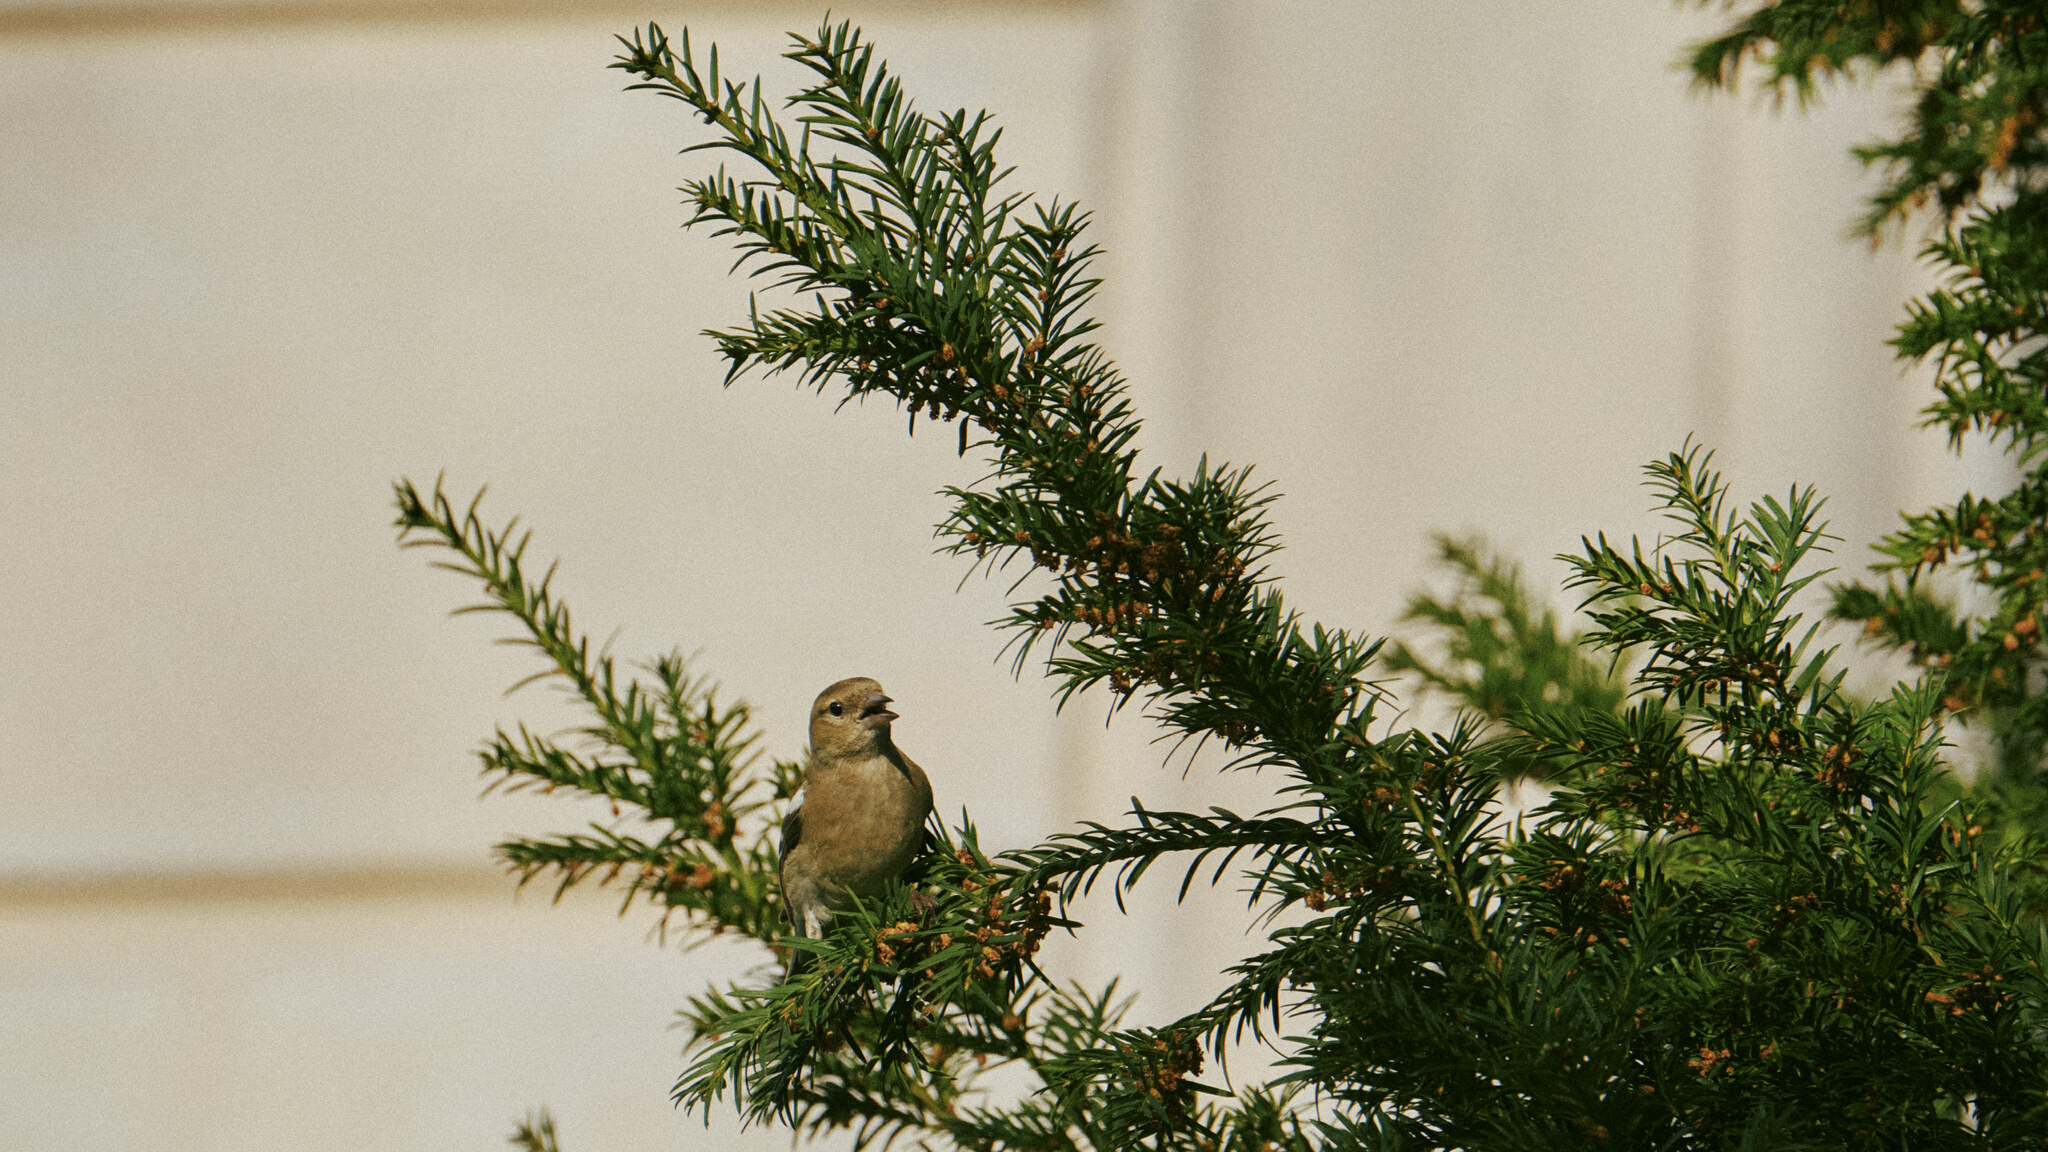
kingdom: Animalia
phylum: Chordata
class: Aves
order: Passeriformes
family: Fringillidae
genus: Fringilla
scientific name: Fringilla coelebs
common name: Common chaffinch
